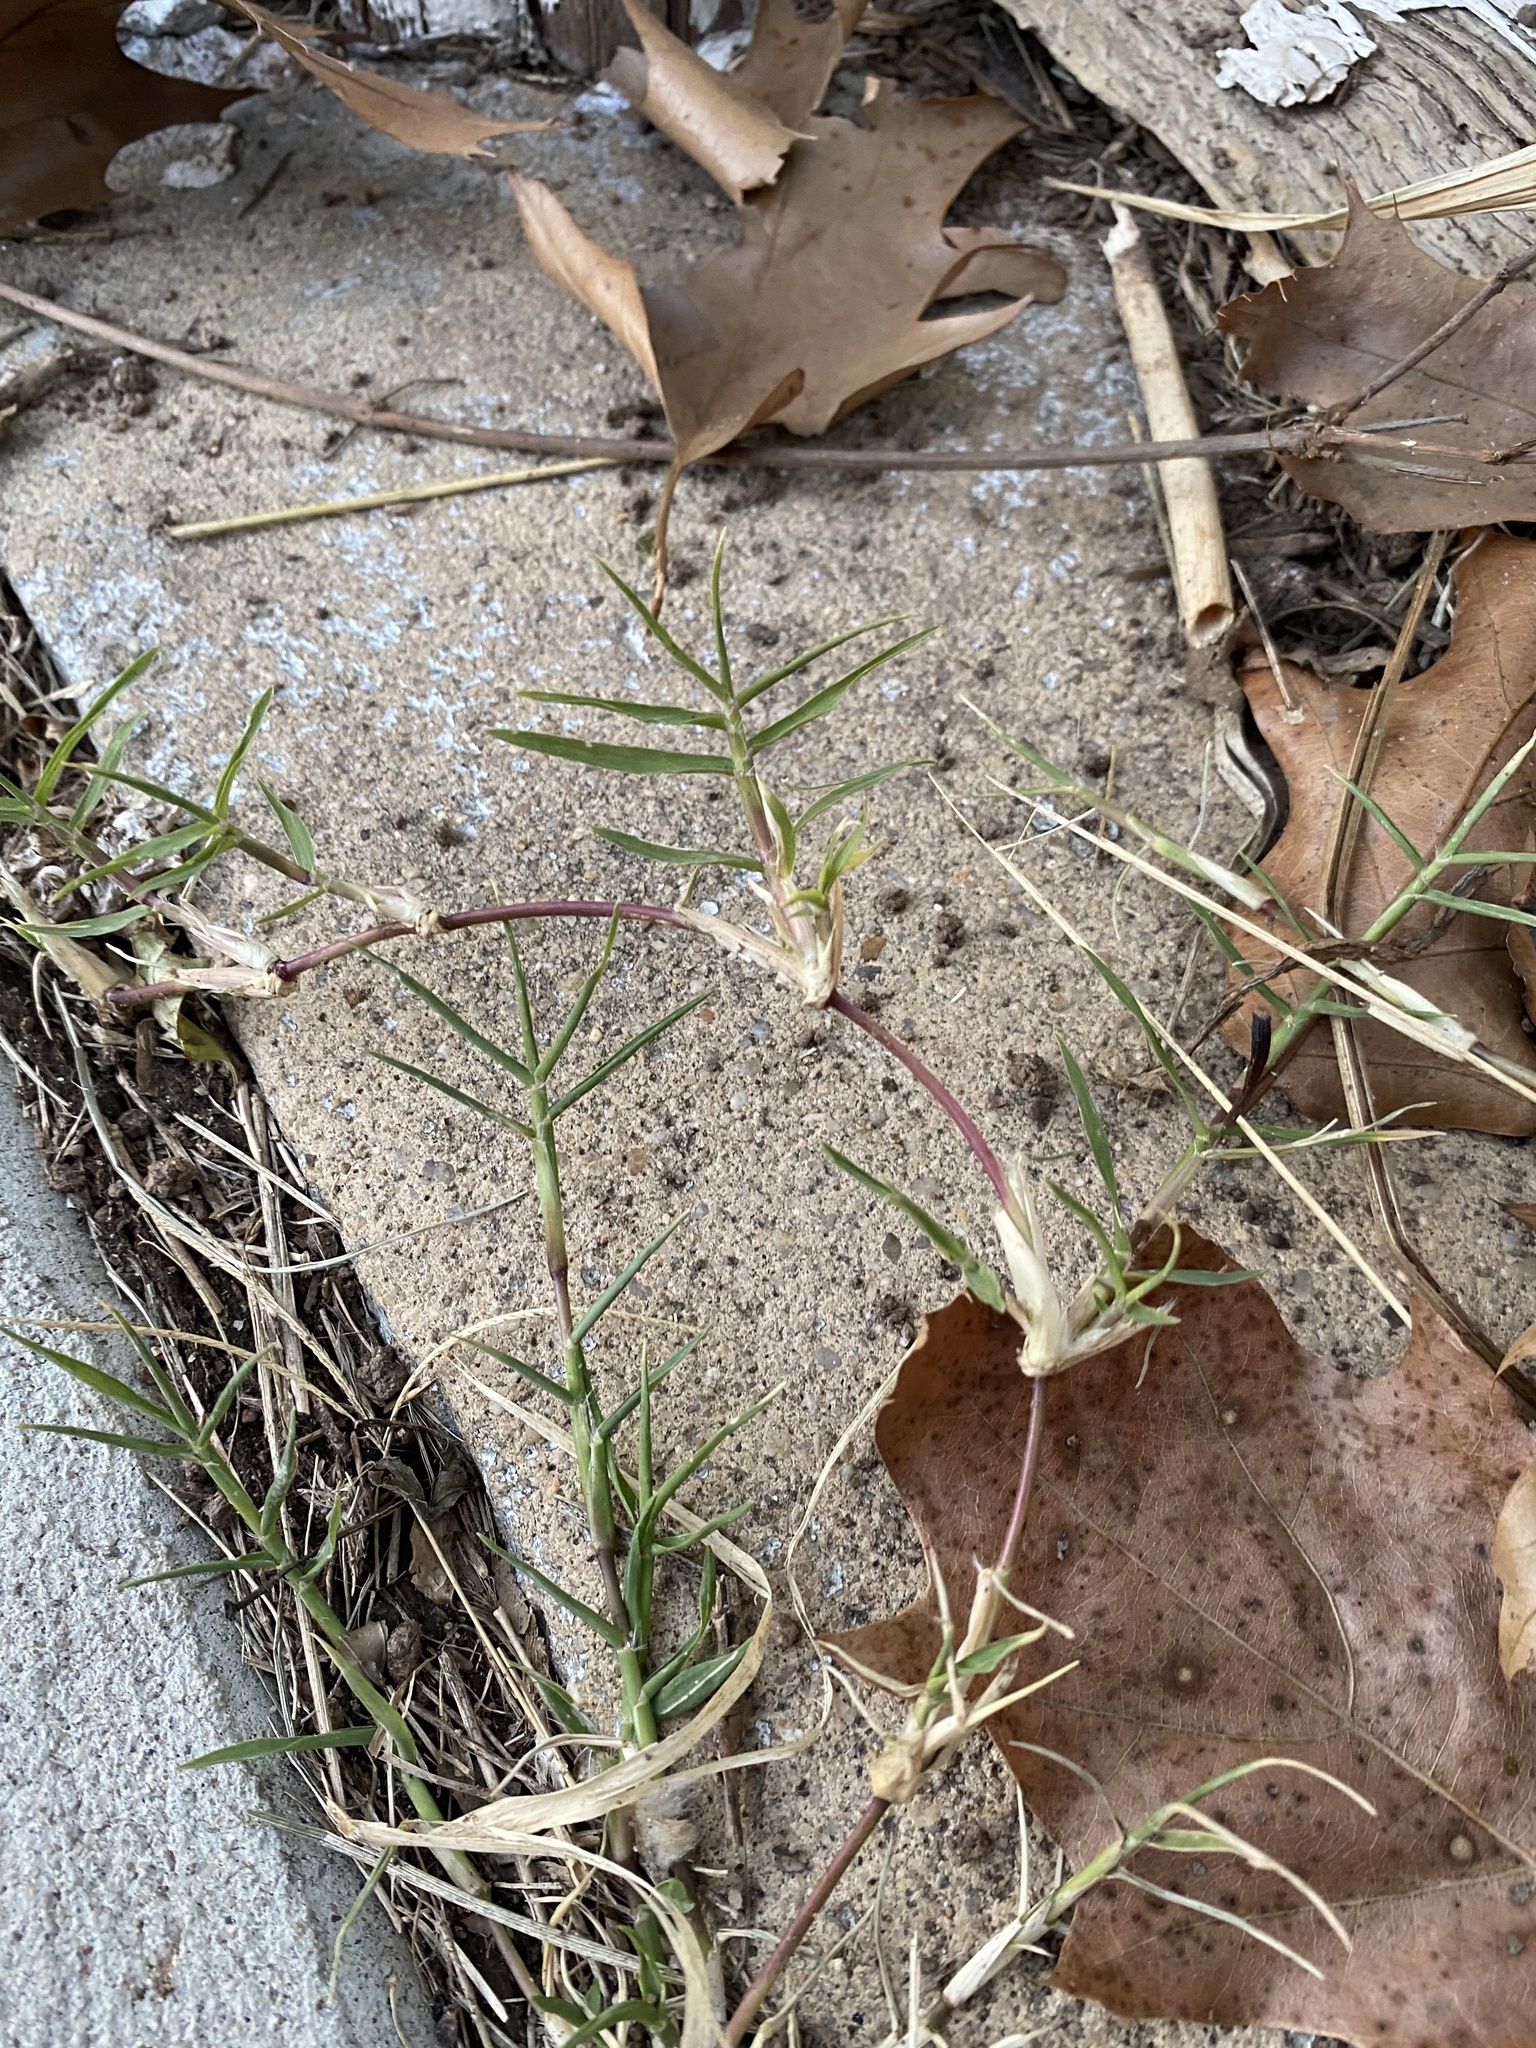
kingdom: Plantae
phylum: Tracheophyta
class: Liliopsida
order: Poales
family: Poaceae
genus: Cynodon
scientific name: Cynodon dactylon
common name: Bermuda grass
